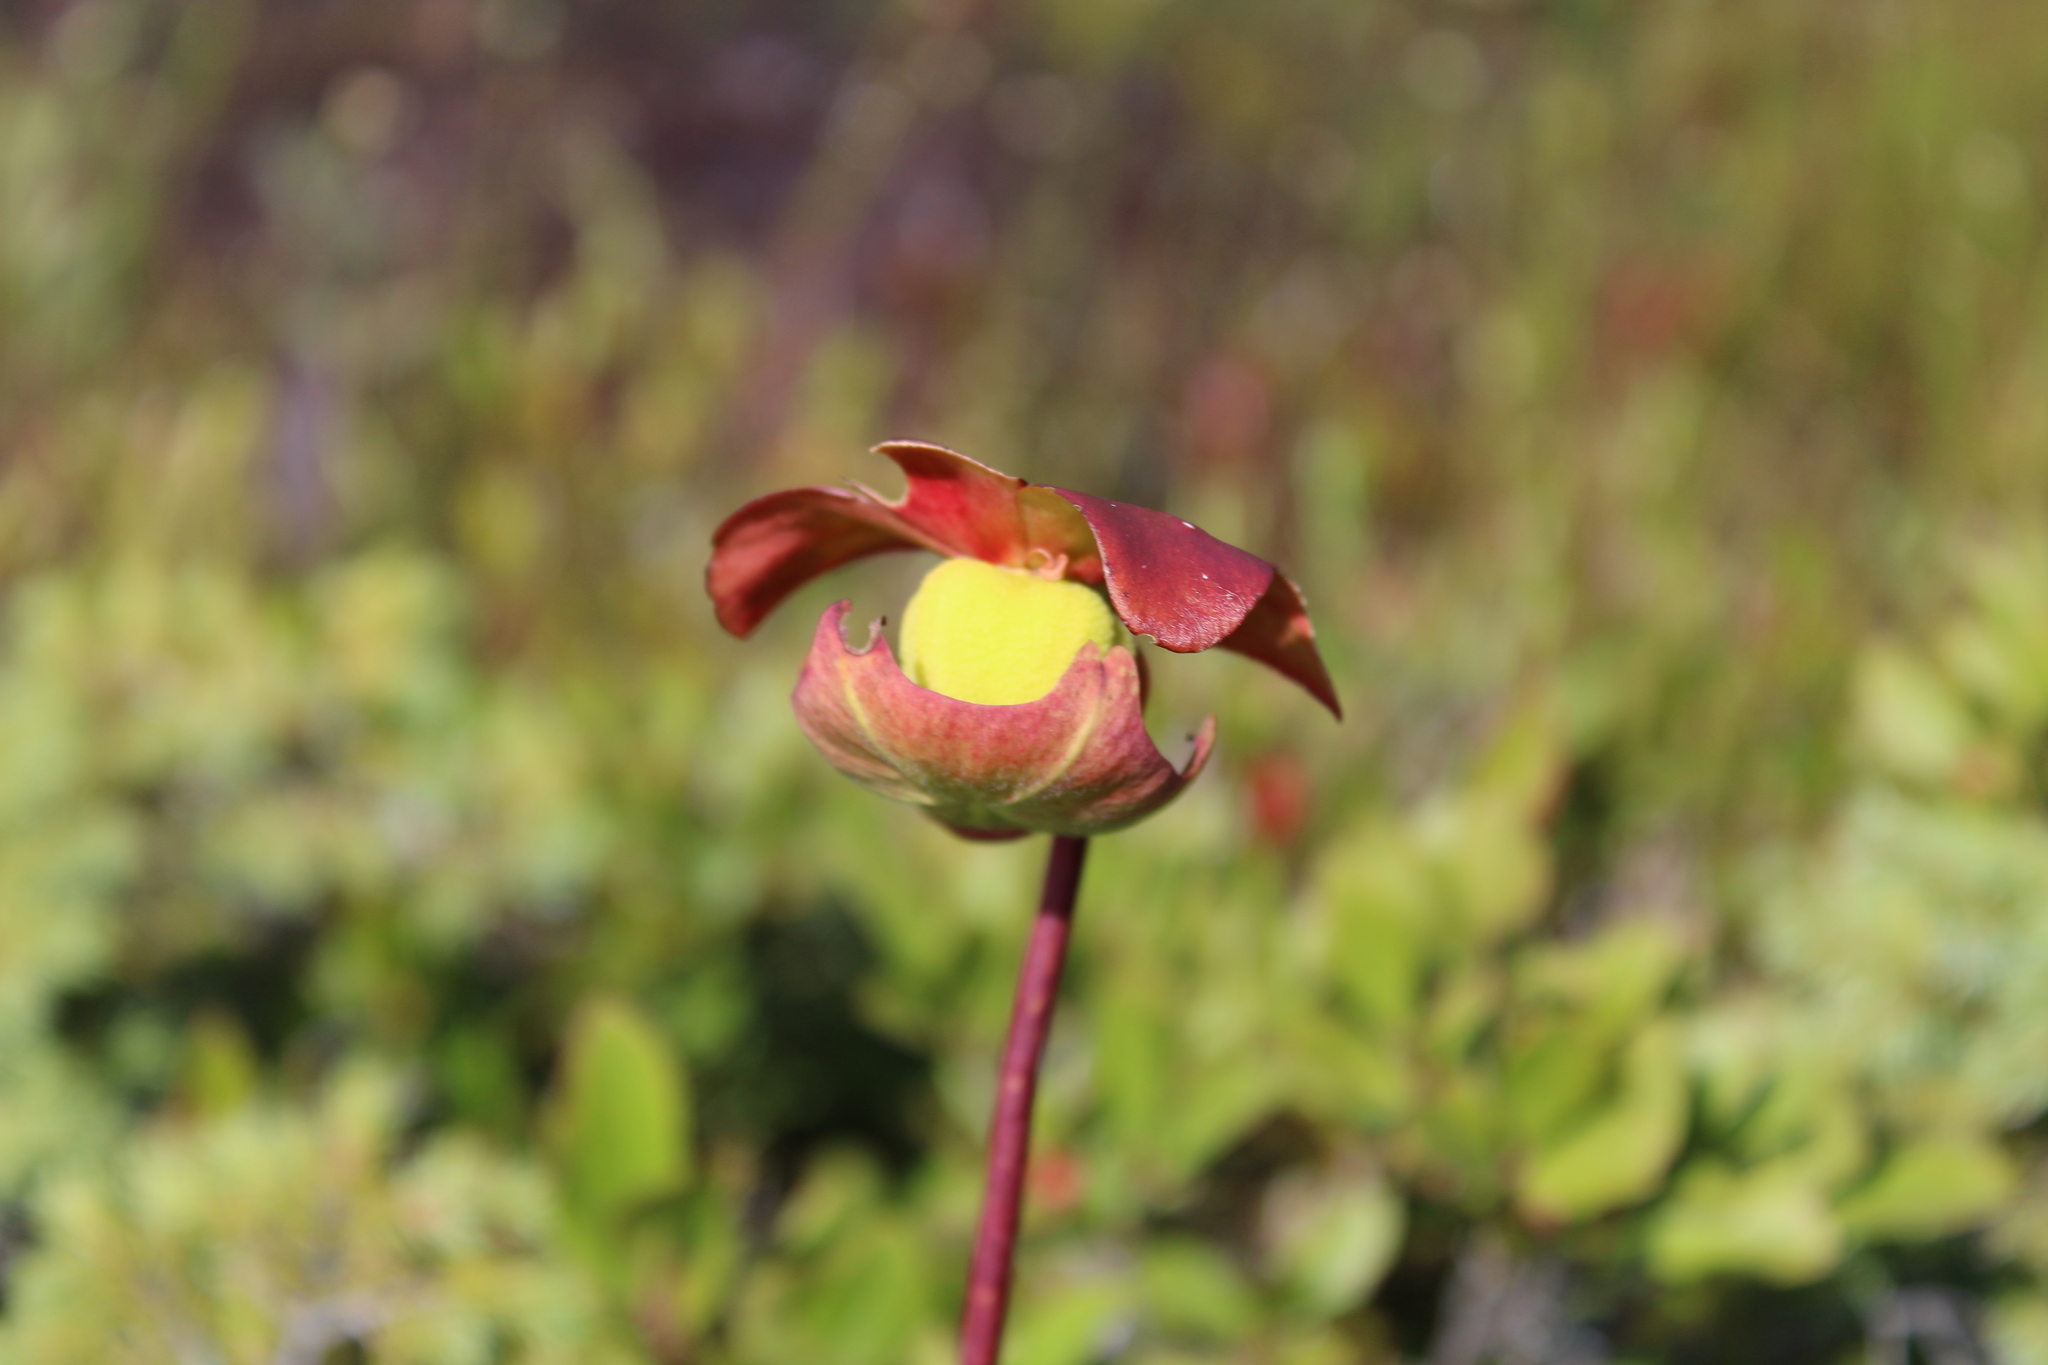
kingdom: Plantae
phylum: Tracheophyta
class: Magnoliopsida
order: Ericales
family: Sarraceniaceae
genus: Sarracenia
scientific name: Sarracenia purpurea
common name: Pitcherplant
